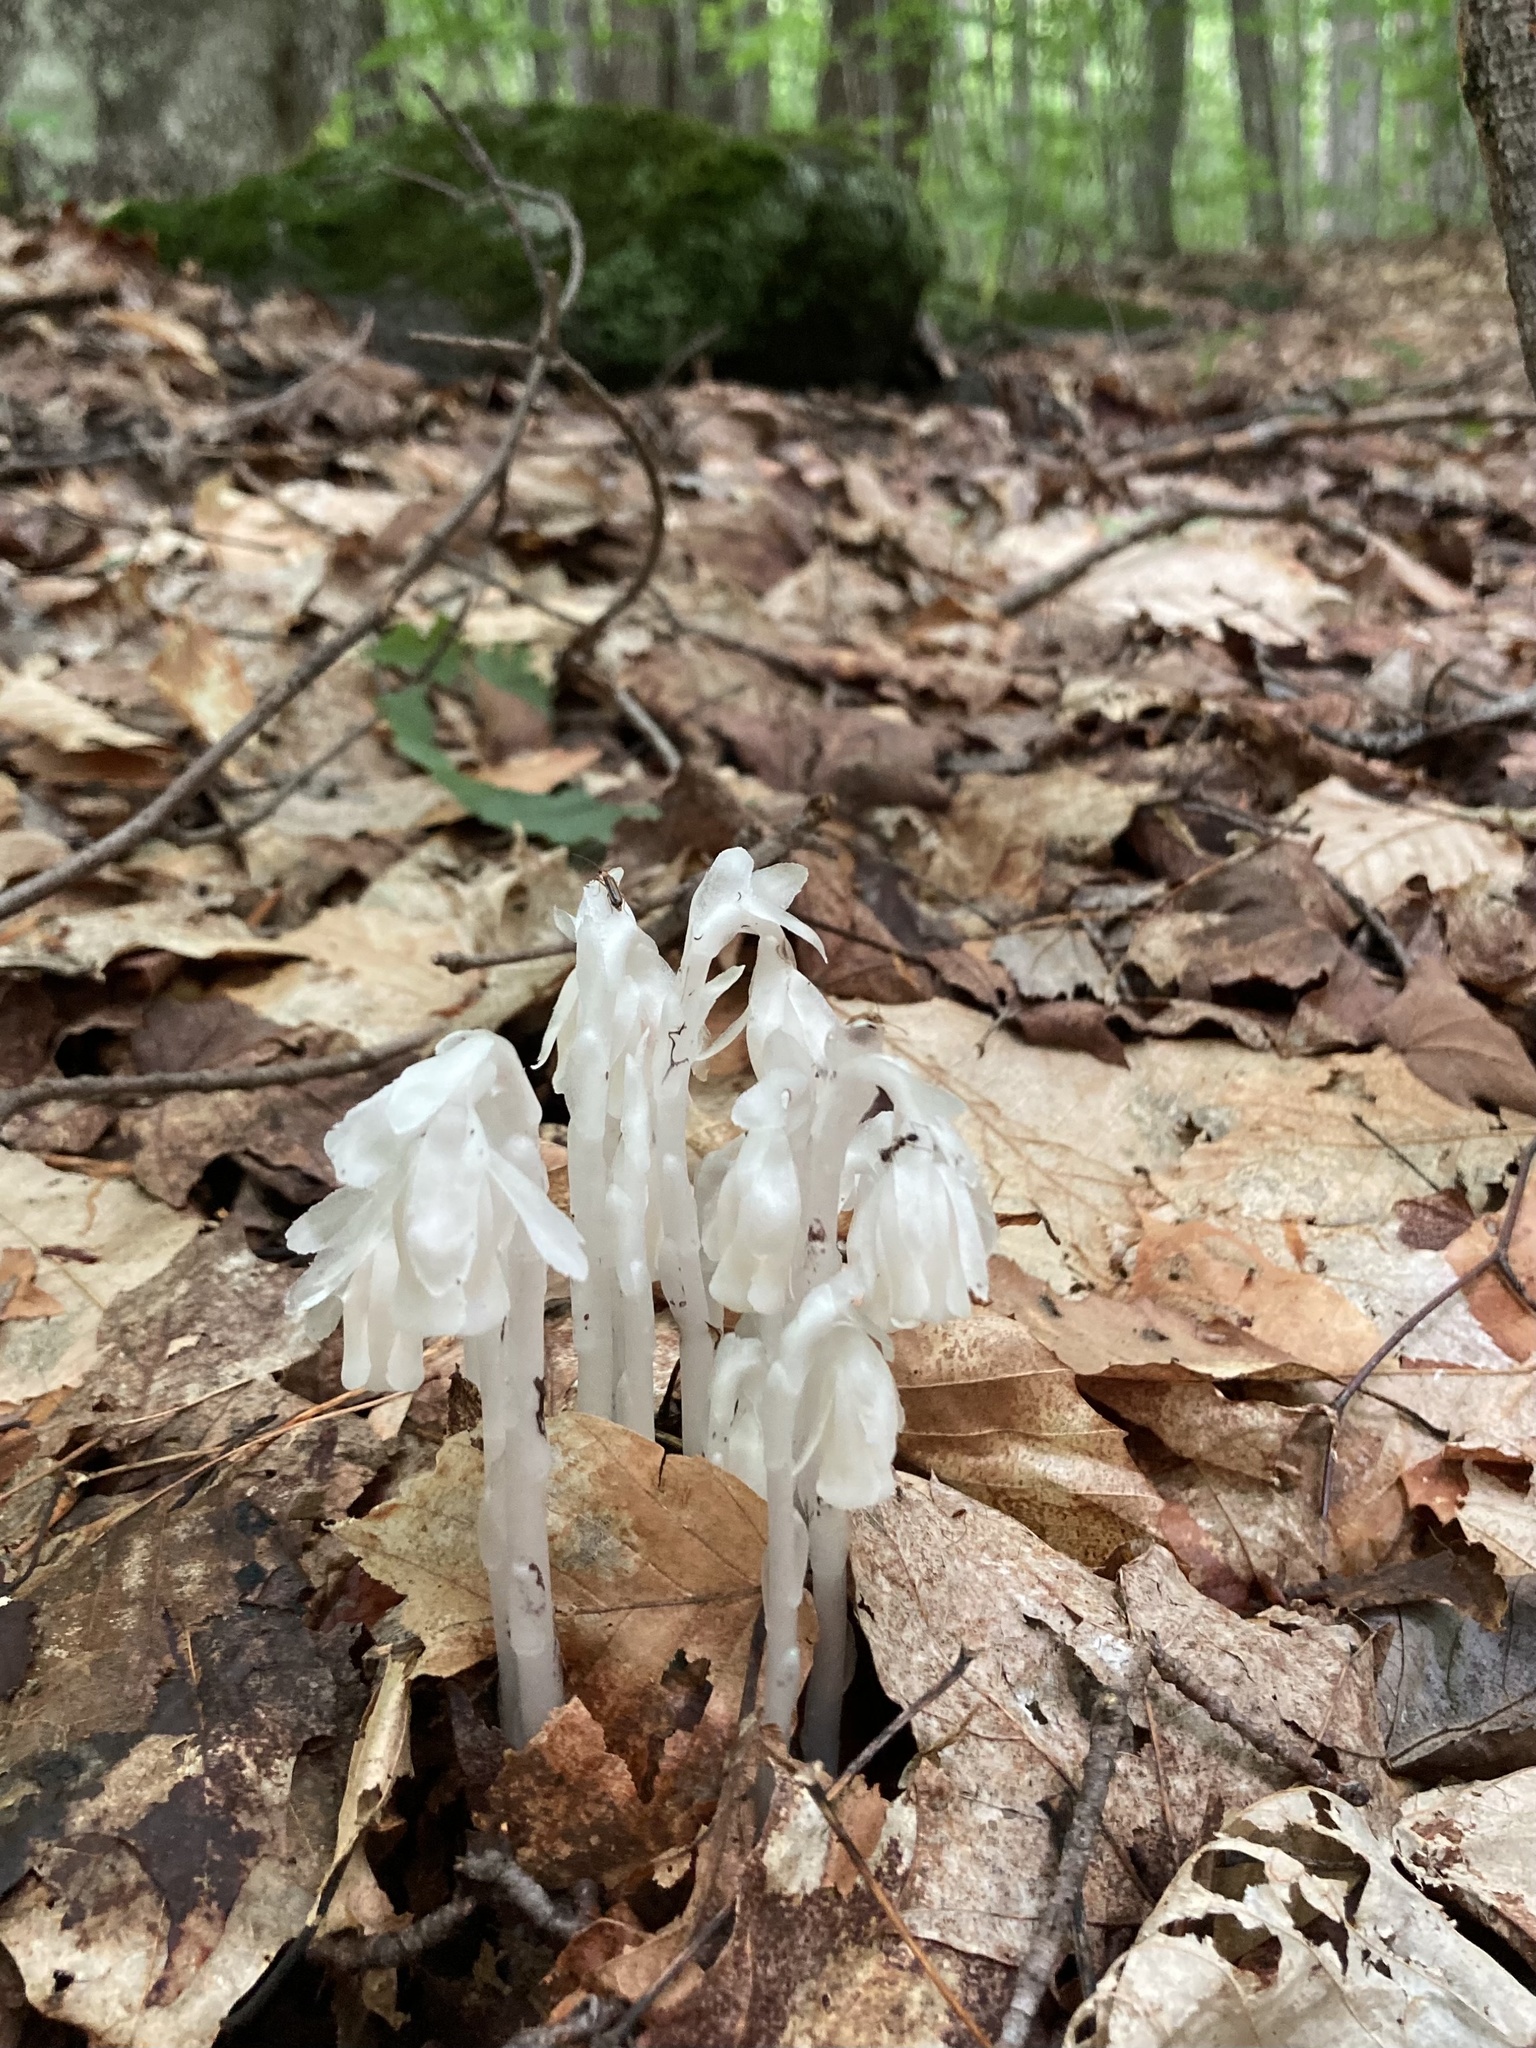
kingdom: Plantae
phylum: Tracheophyta
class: Magnoliopsida
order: Ericales
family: Ericaceae
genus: Monotropa
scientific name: Monotropa uniflora
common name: Convulsion root
